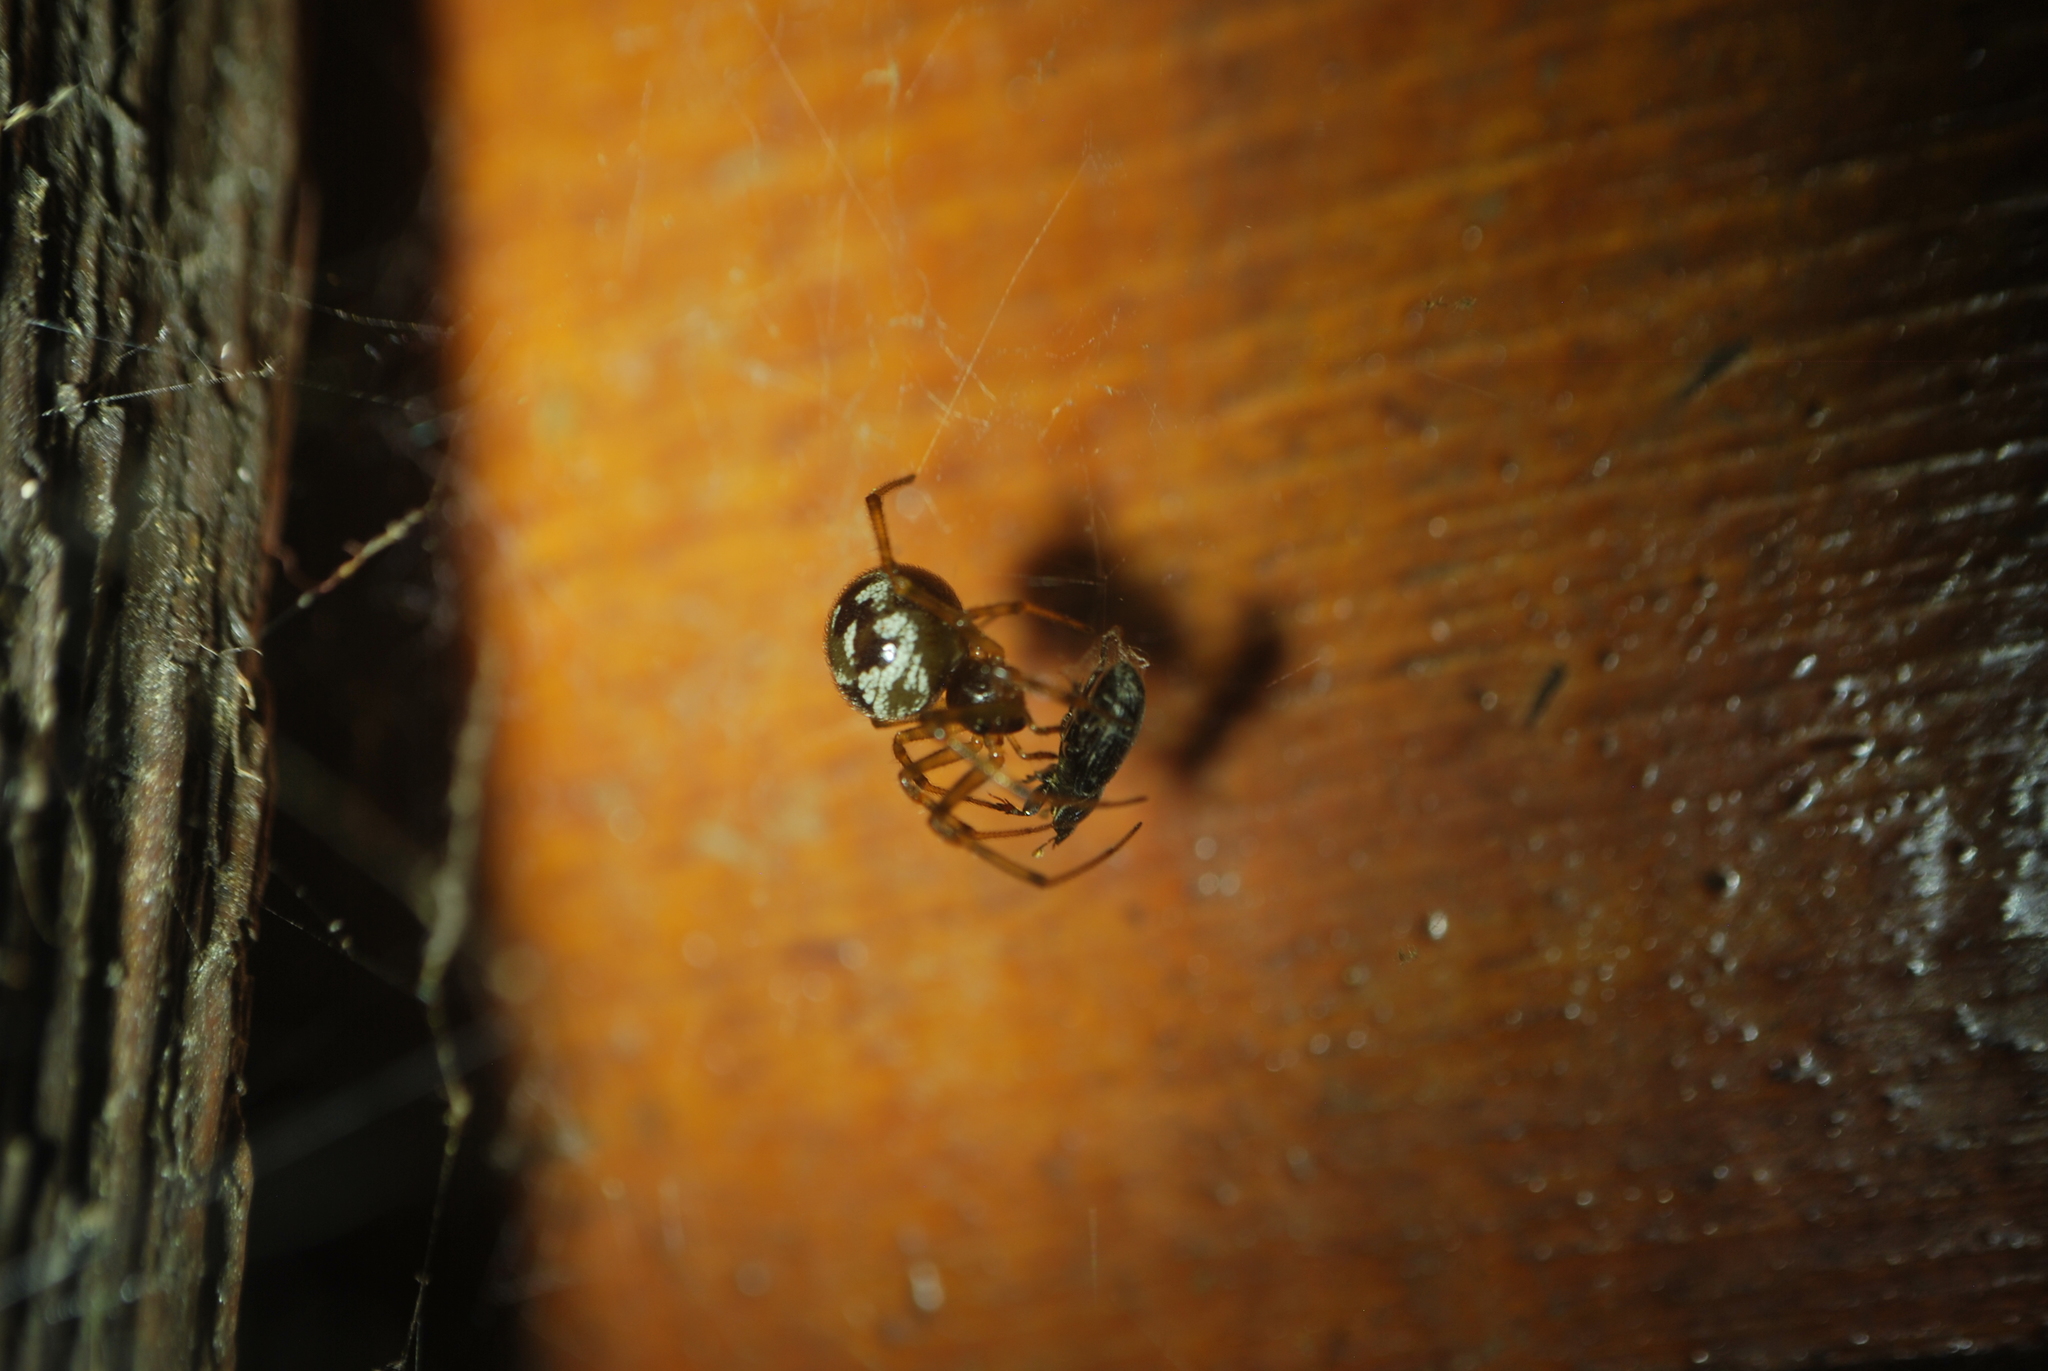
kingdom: Animalia
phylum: Arthropoda
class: Arachnida
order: Araneae
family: Theridiidae
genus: Steatoda
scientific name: Steatoda triangulosa
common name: Triangulate bud spider
